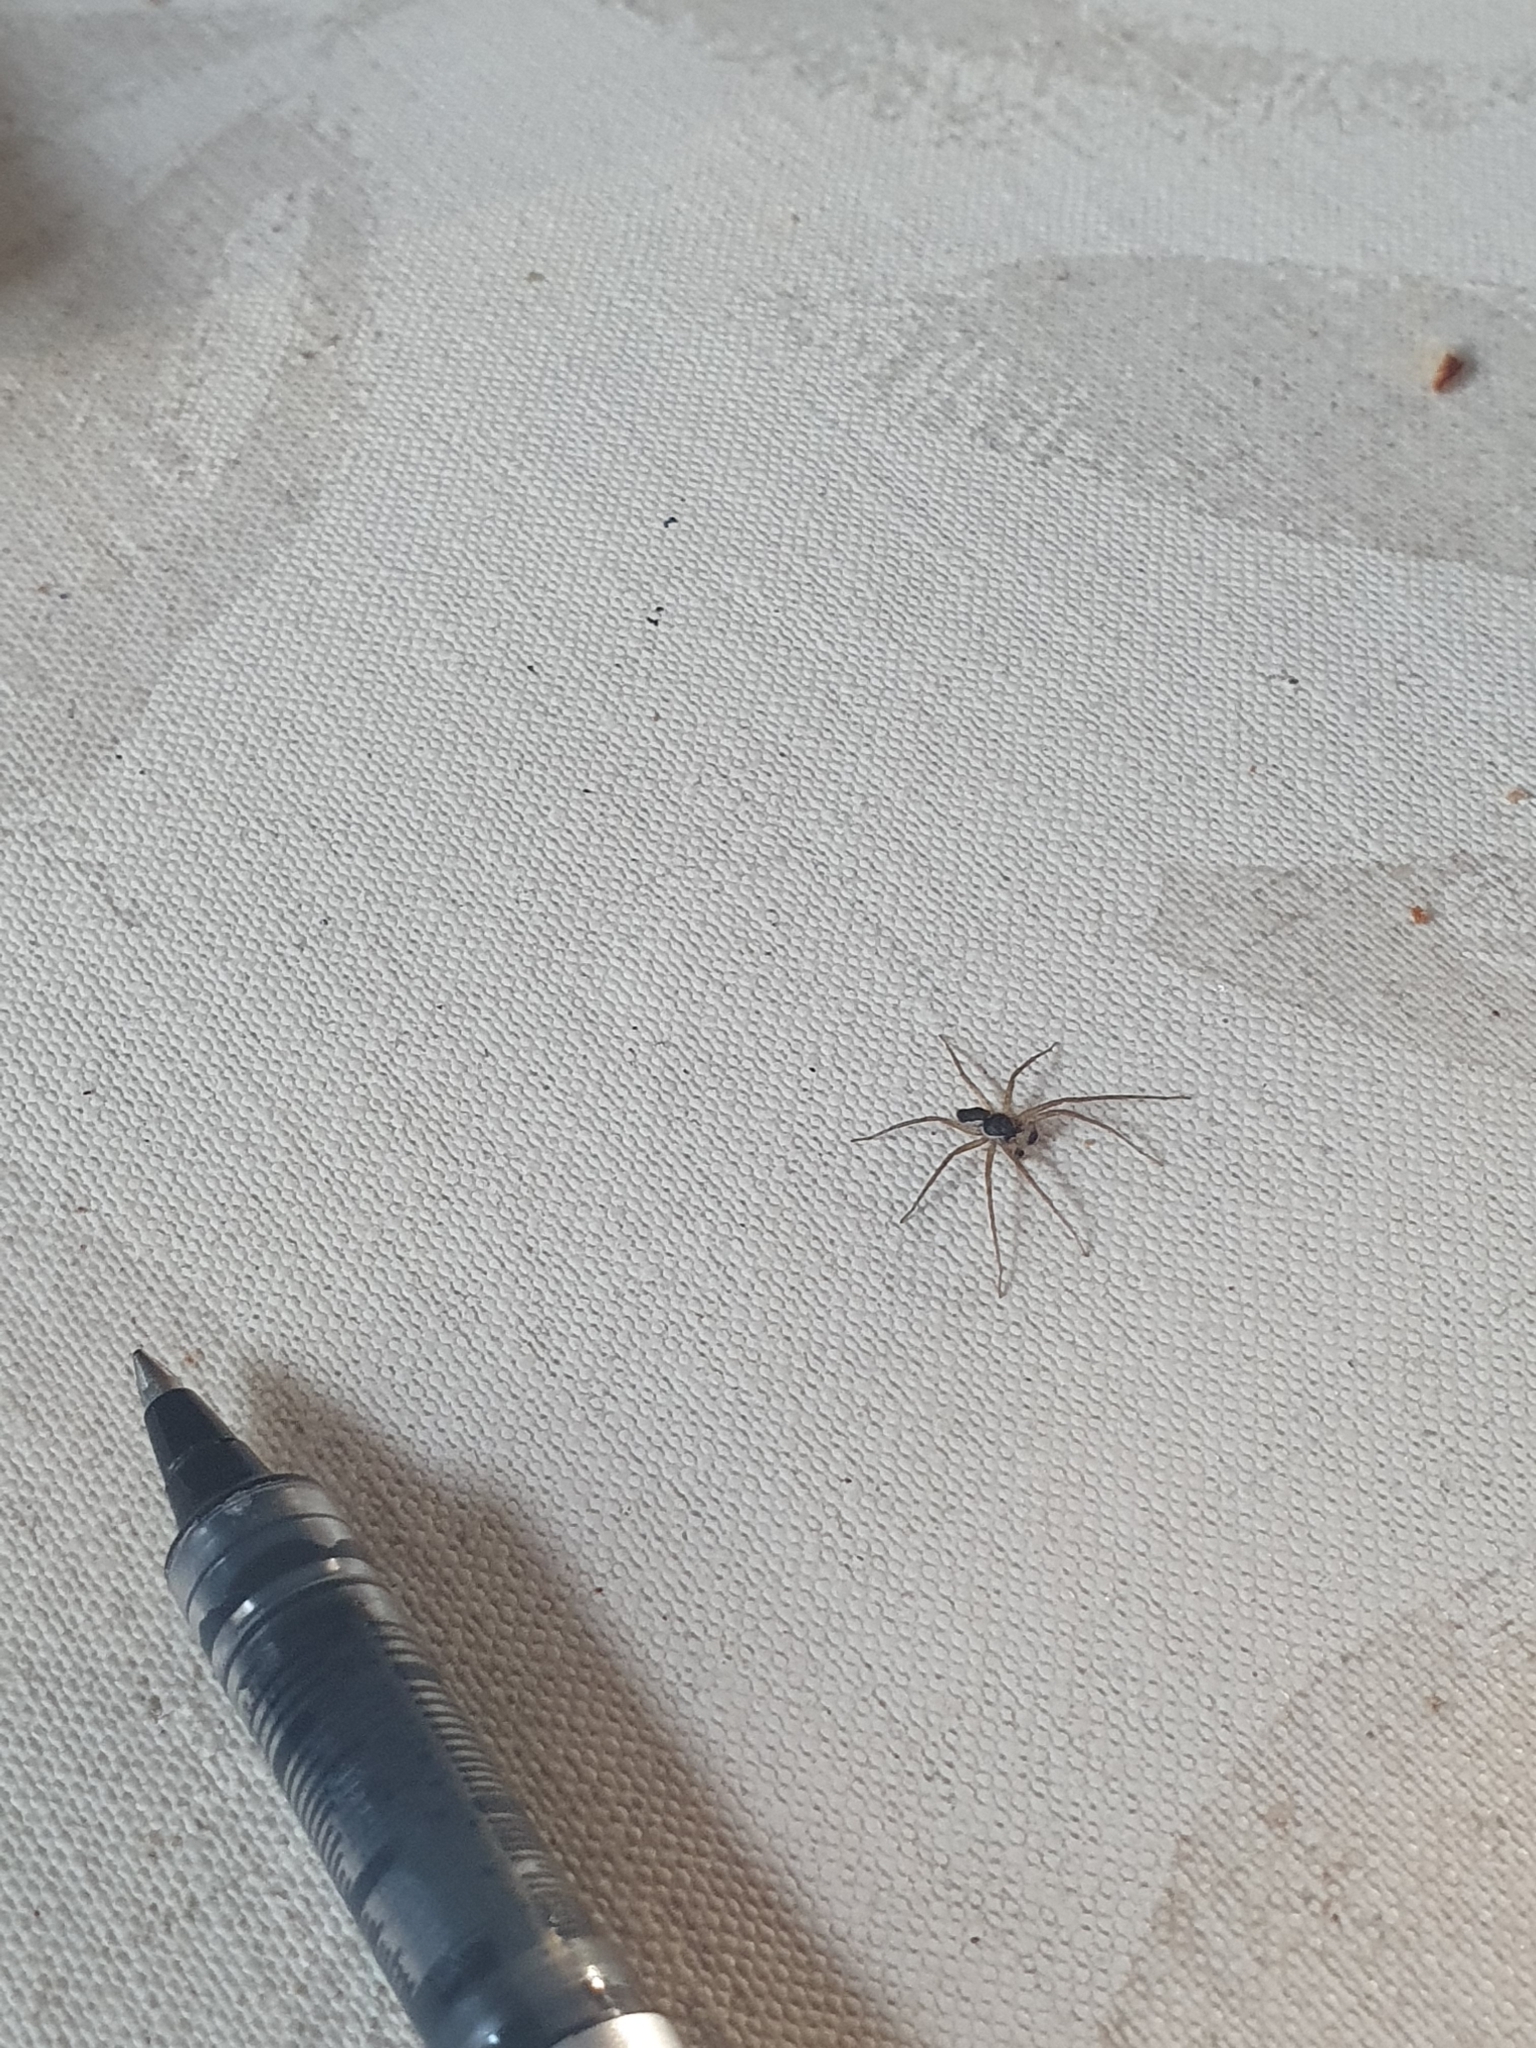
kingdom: Animalia
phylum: Arthropoda
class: Arachnida
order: Araneae
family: Philodromidae
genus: Philodromus
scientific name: Philodromus dispar
